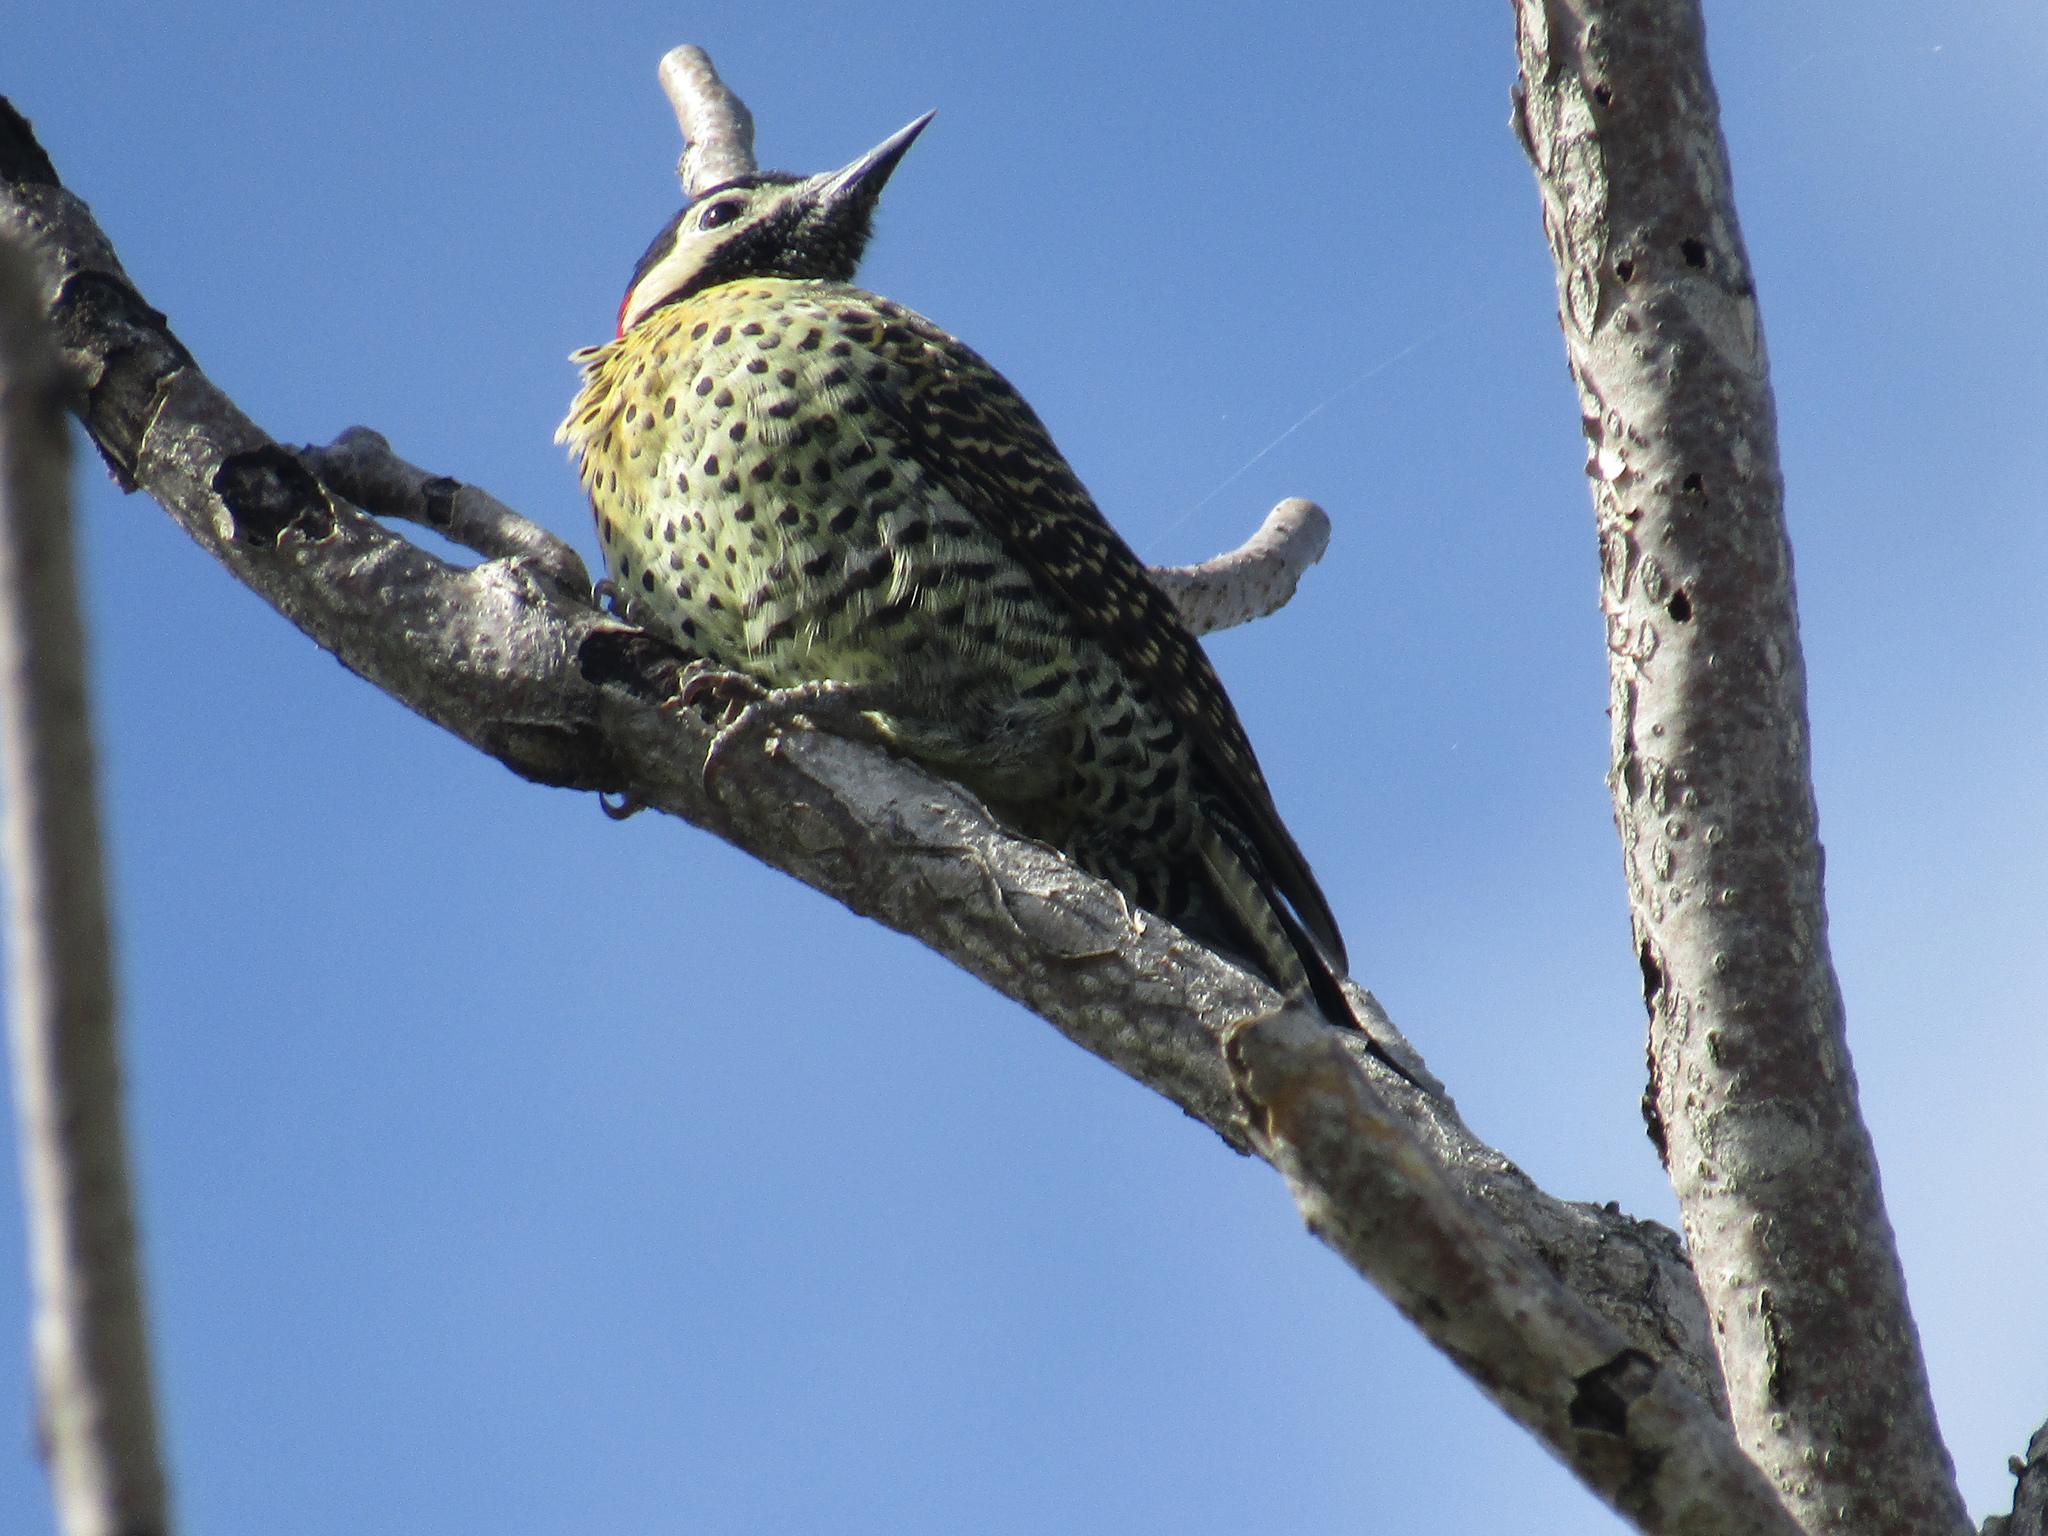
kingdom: Animalia
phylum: Chordata
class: Aves
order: Piciformes
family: Picidae
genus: Colaptes
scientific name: Colaptes melanochloros
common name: Green-barred woodpecker
